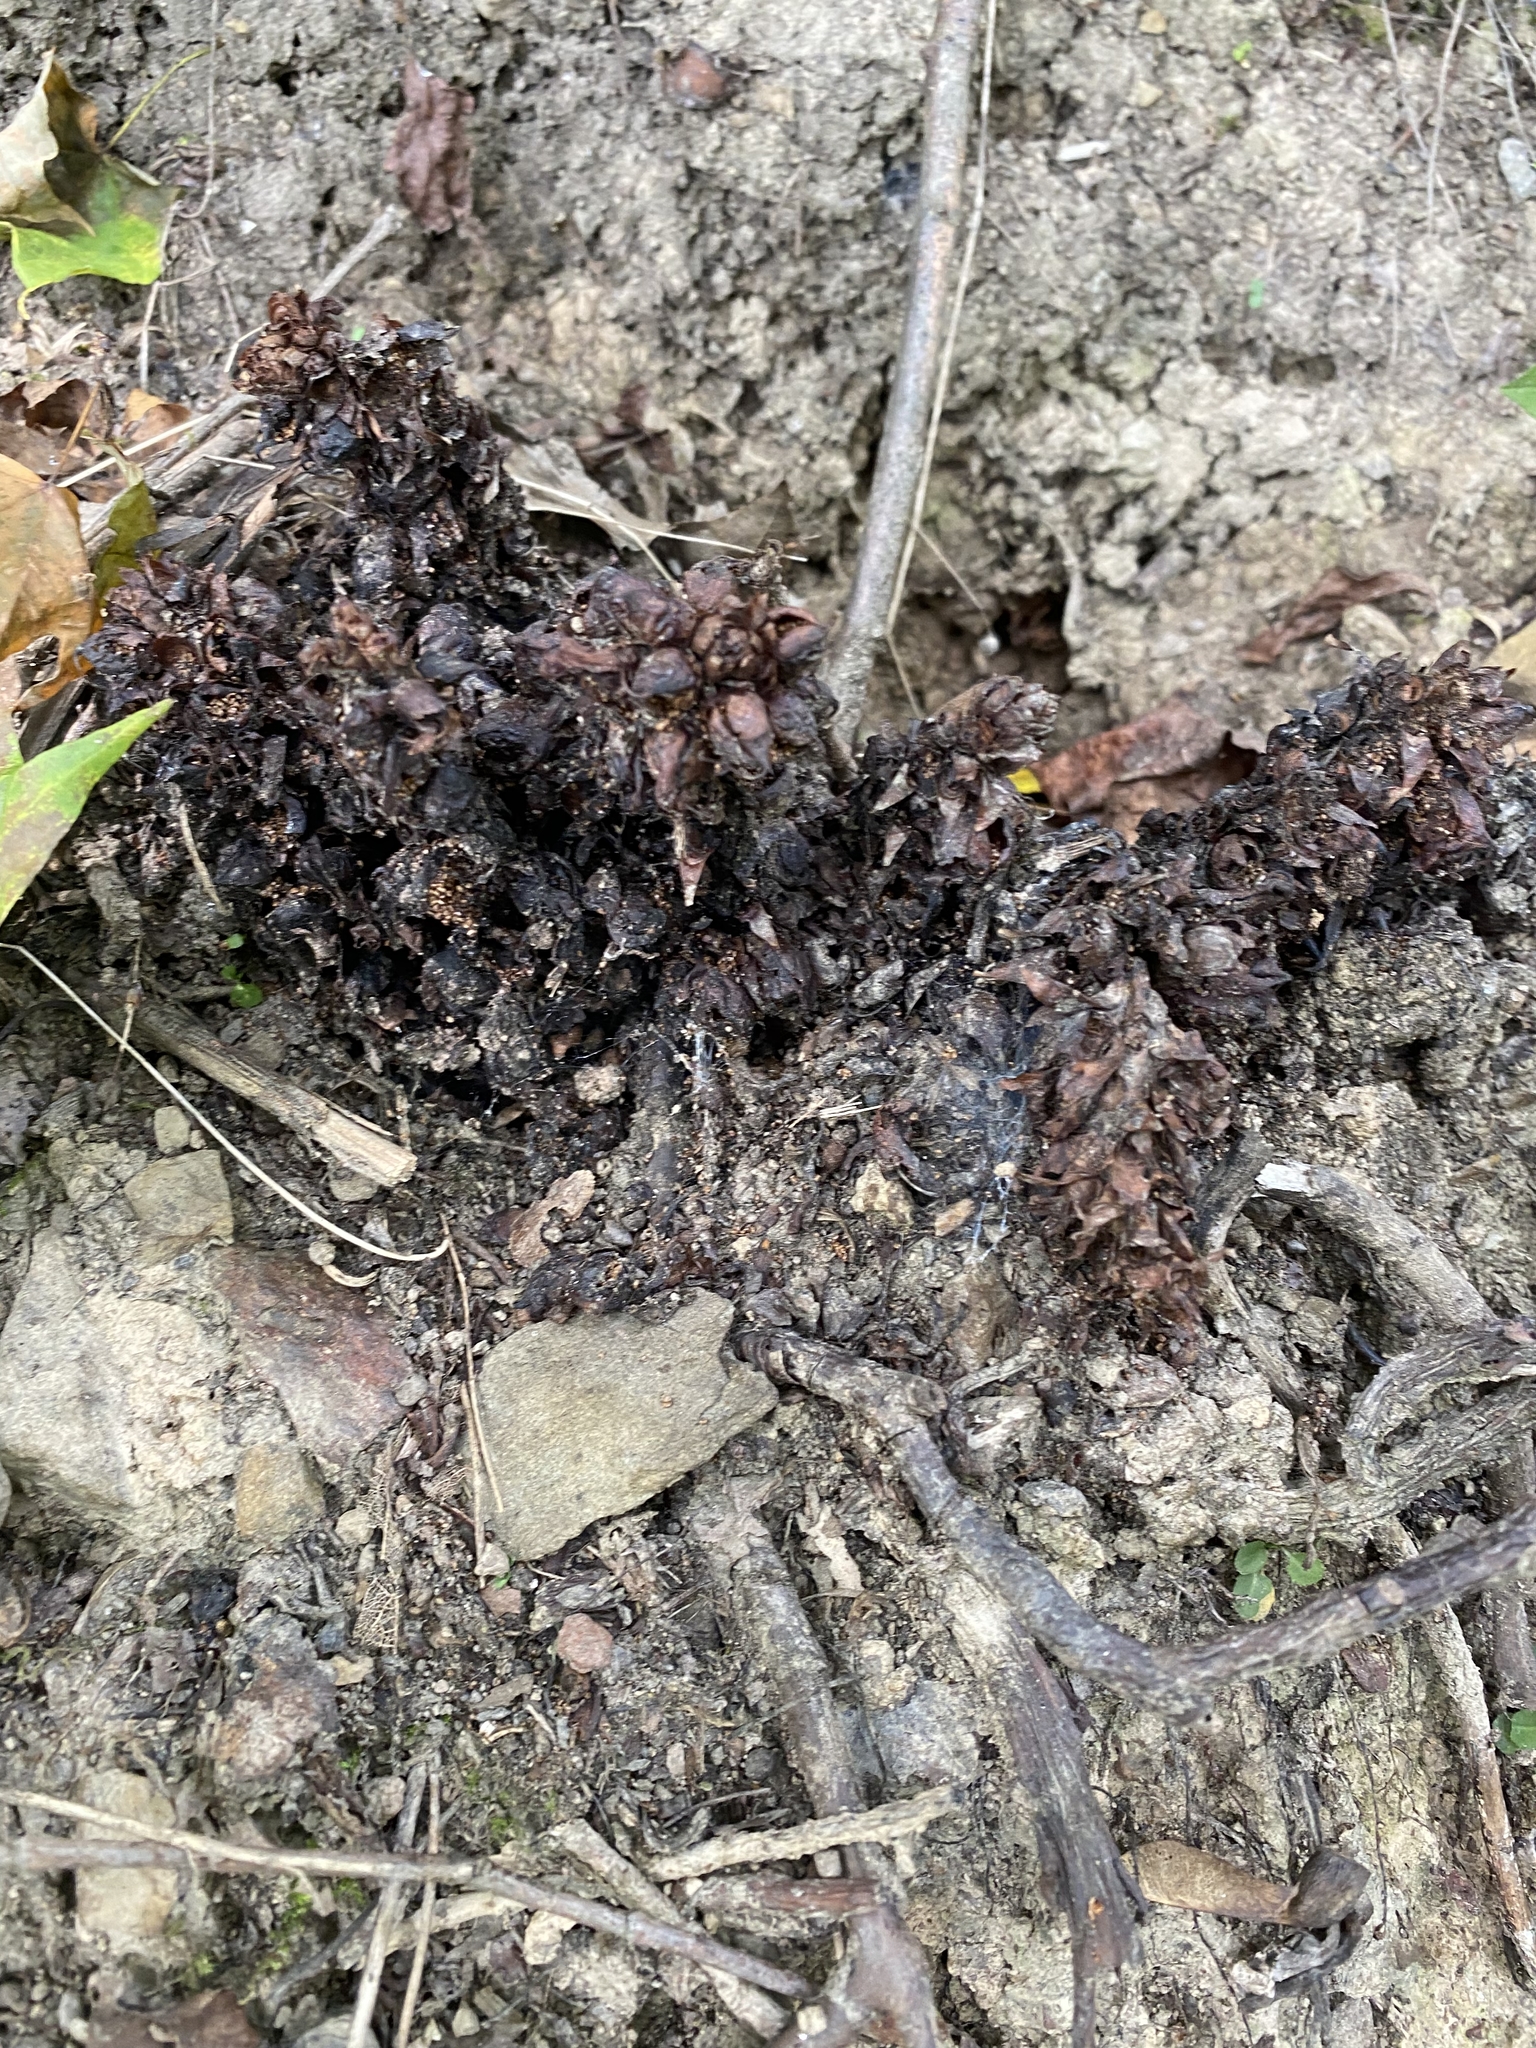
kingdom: Plantae
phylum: Tracheophyta
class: Magnoliopsida
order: Lamiales
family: Orobanchaceae
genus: Conopholis
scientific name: Conopholis americana
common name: American cancer-root
